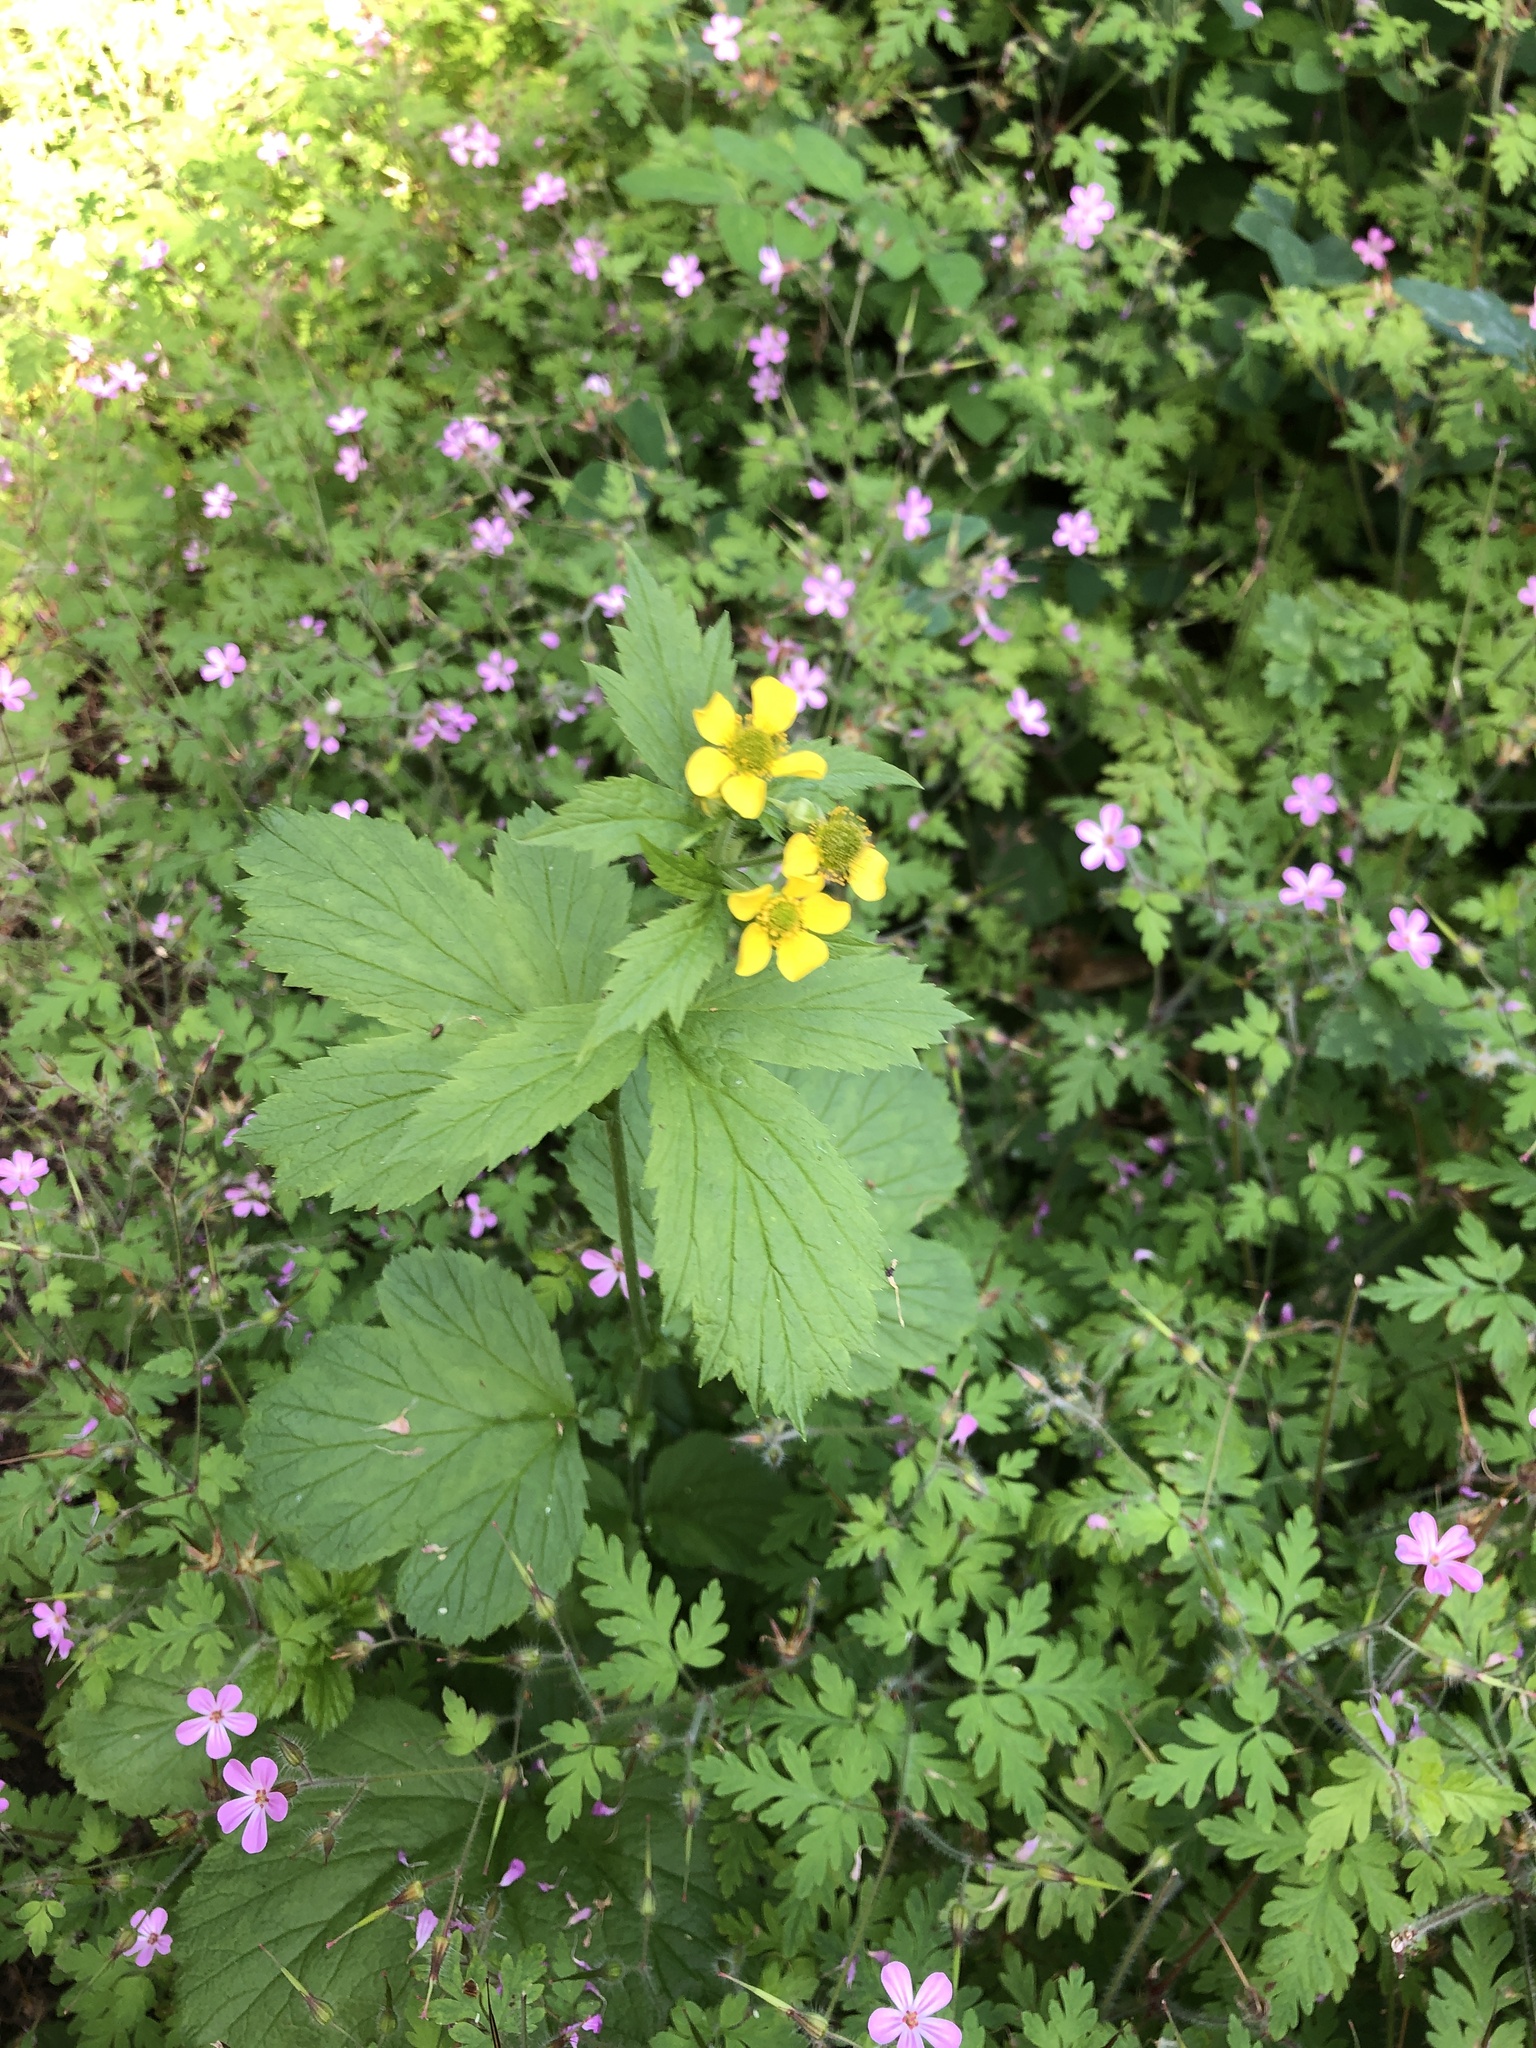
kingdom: Plantae
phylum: Tracheophyta
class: Magnoliopsida
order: Rosales
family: Rosaceae
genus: Geum
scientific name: Geum macrophyllum
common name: Large-leaved avens
